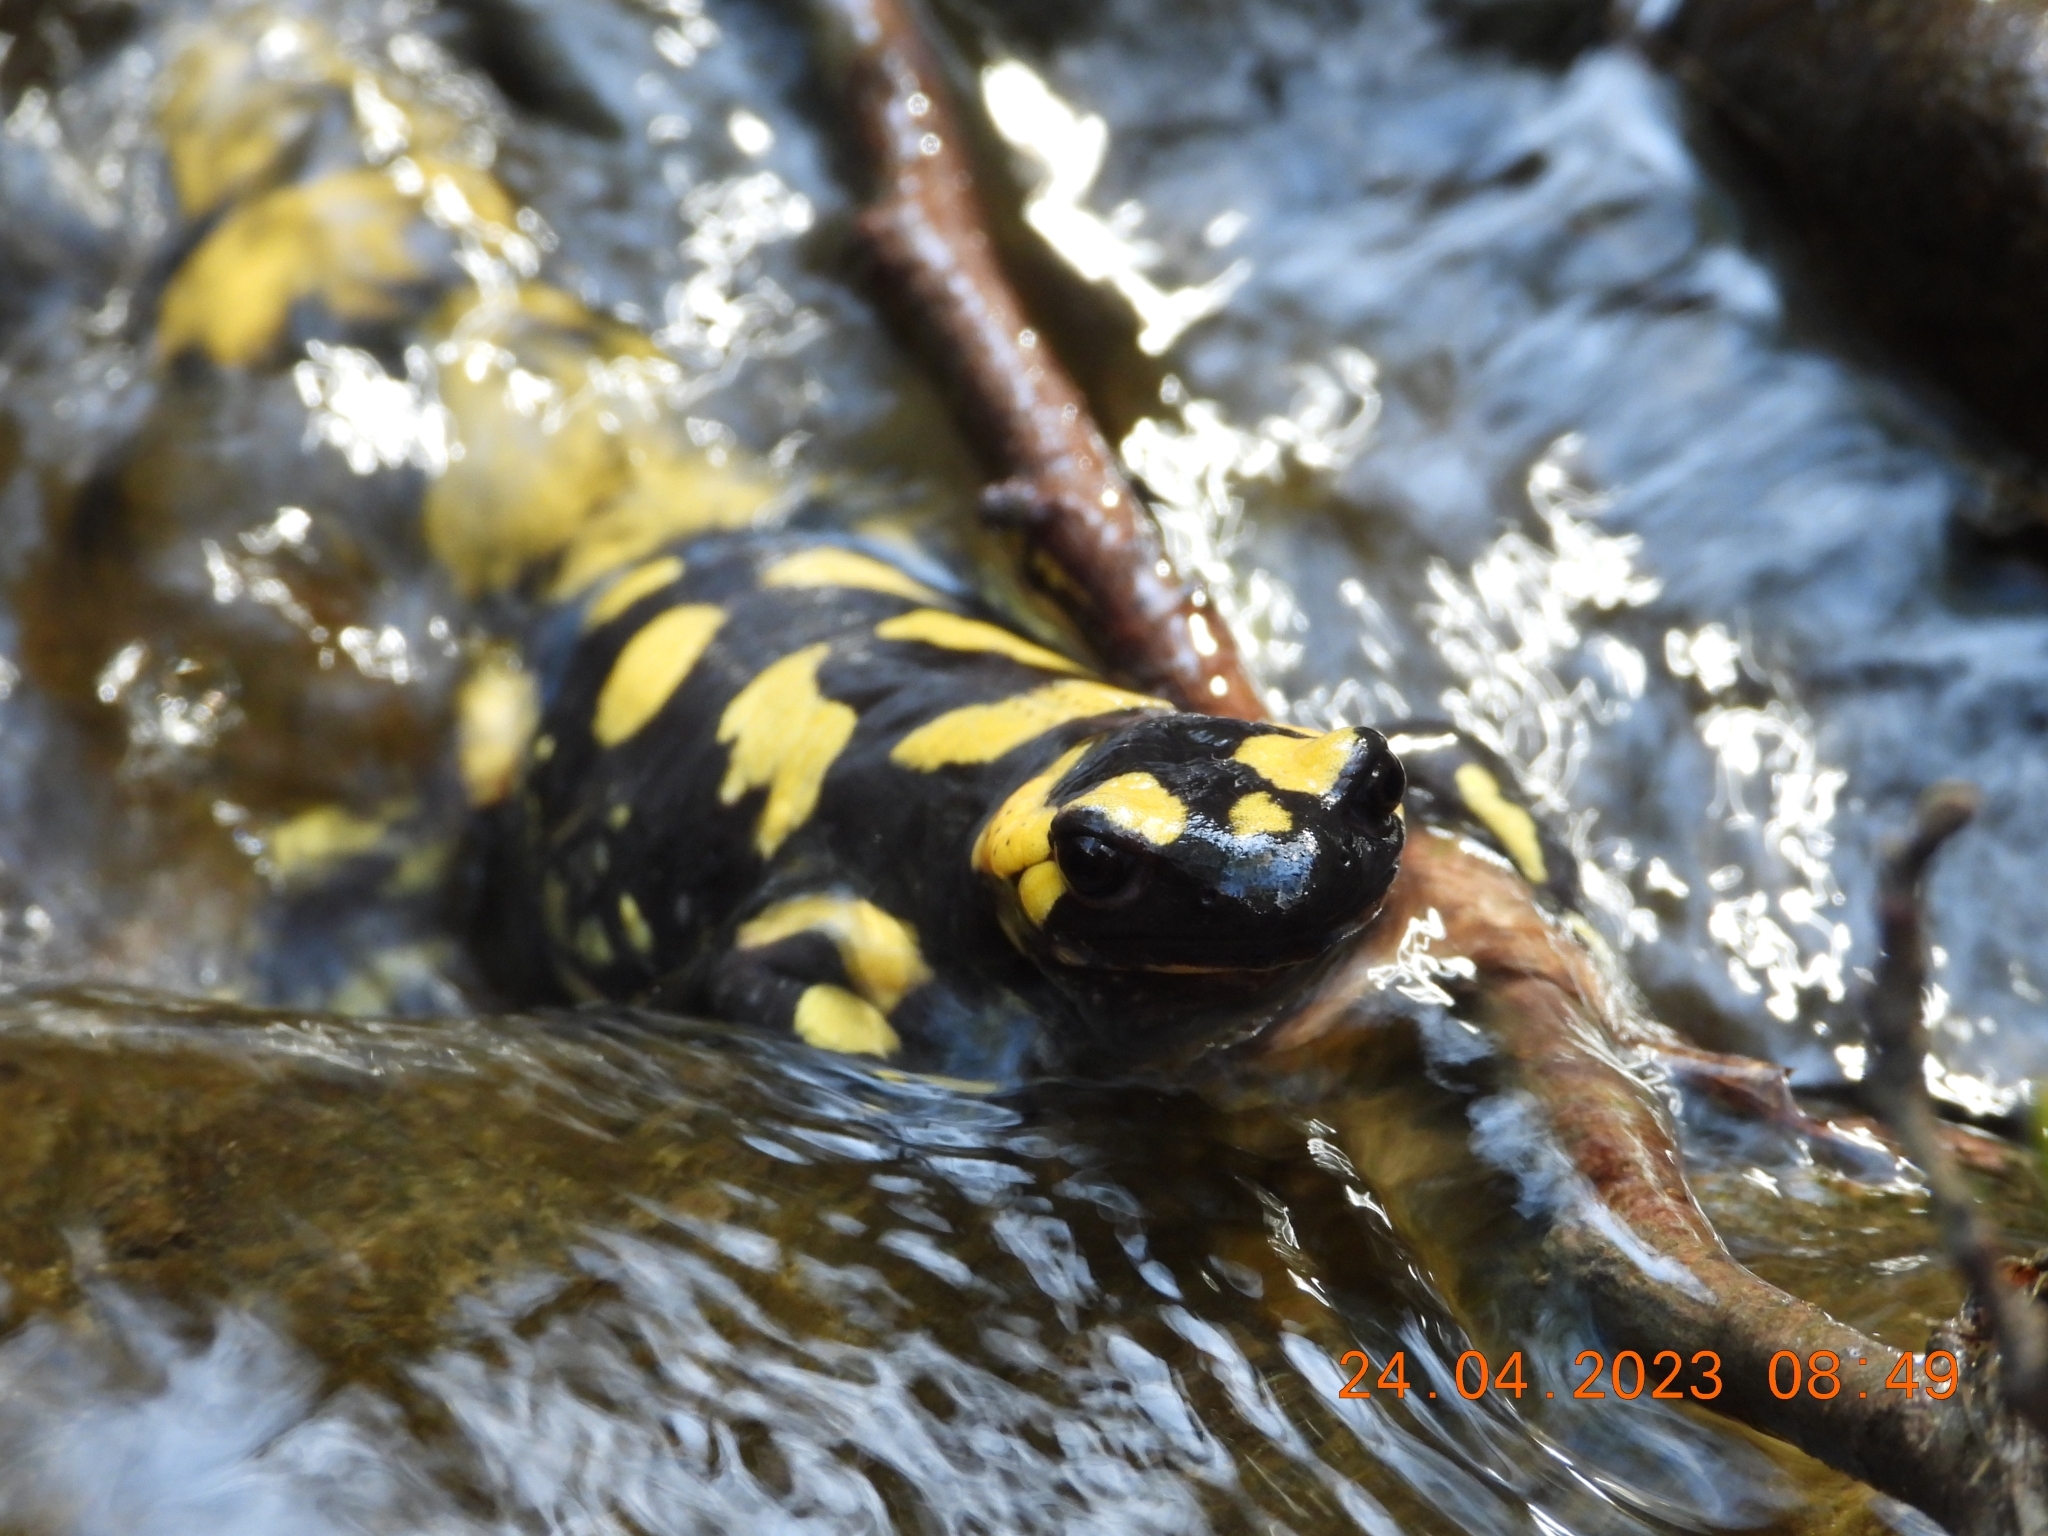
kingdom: Animalia
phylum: Chordata
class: Amphibia
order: Caudata
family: Salamandridae
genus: Salamandra
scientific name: Salamandra salamandra
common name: Fire salamander
